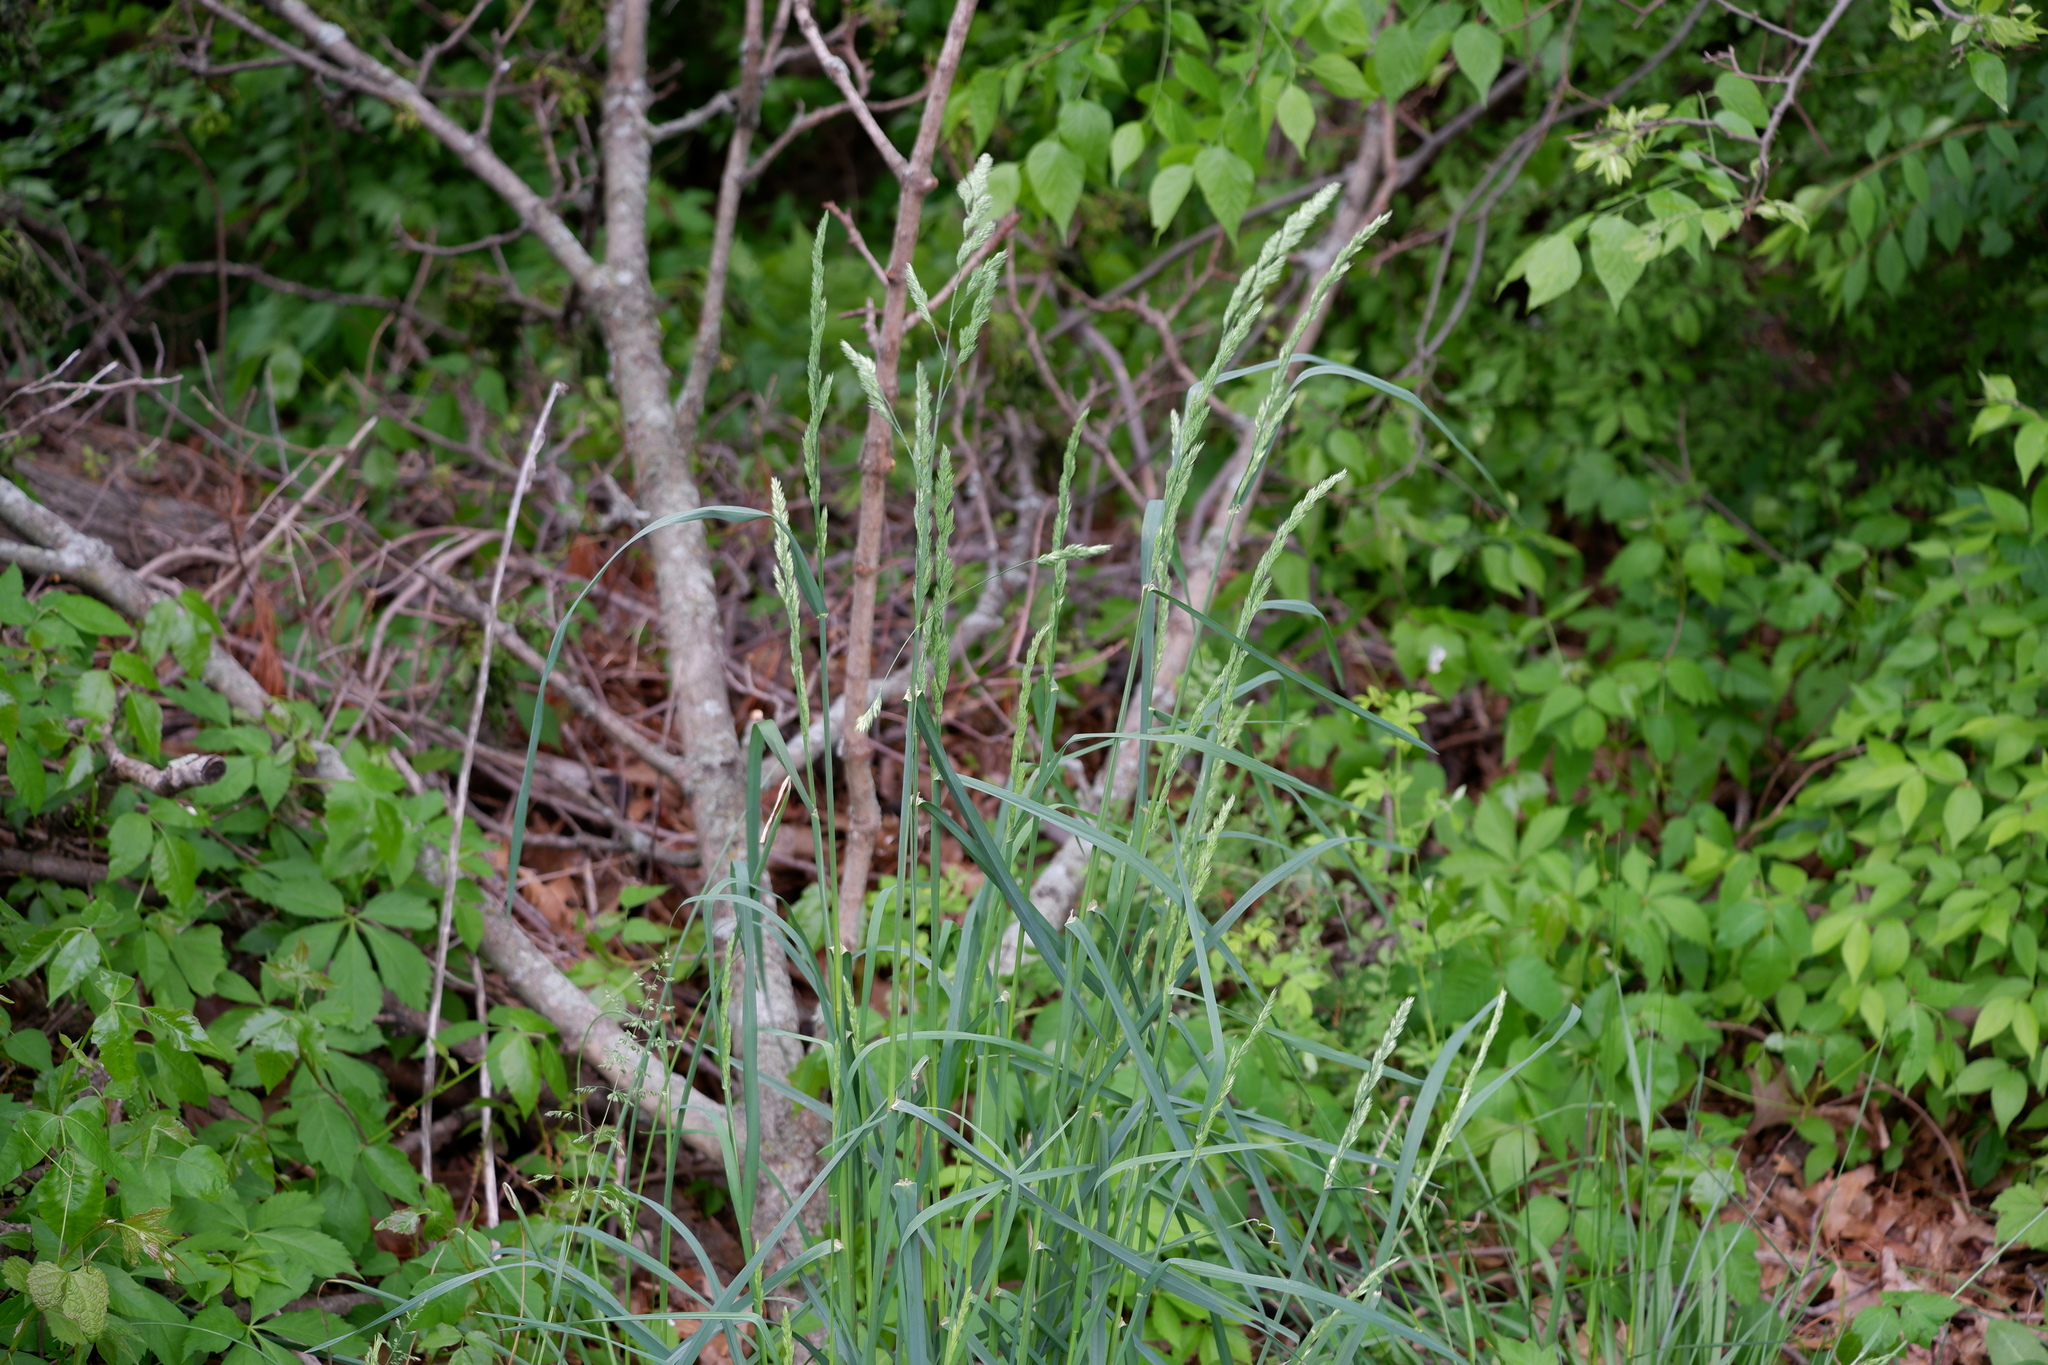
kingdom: Plantae
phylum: Tracheophyta
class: Liliopsida
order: Poales
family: Poaceae
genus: Dactylis
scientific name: Dactylis glomerata
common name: Orchardgrass
